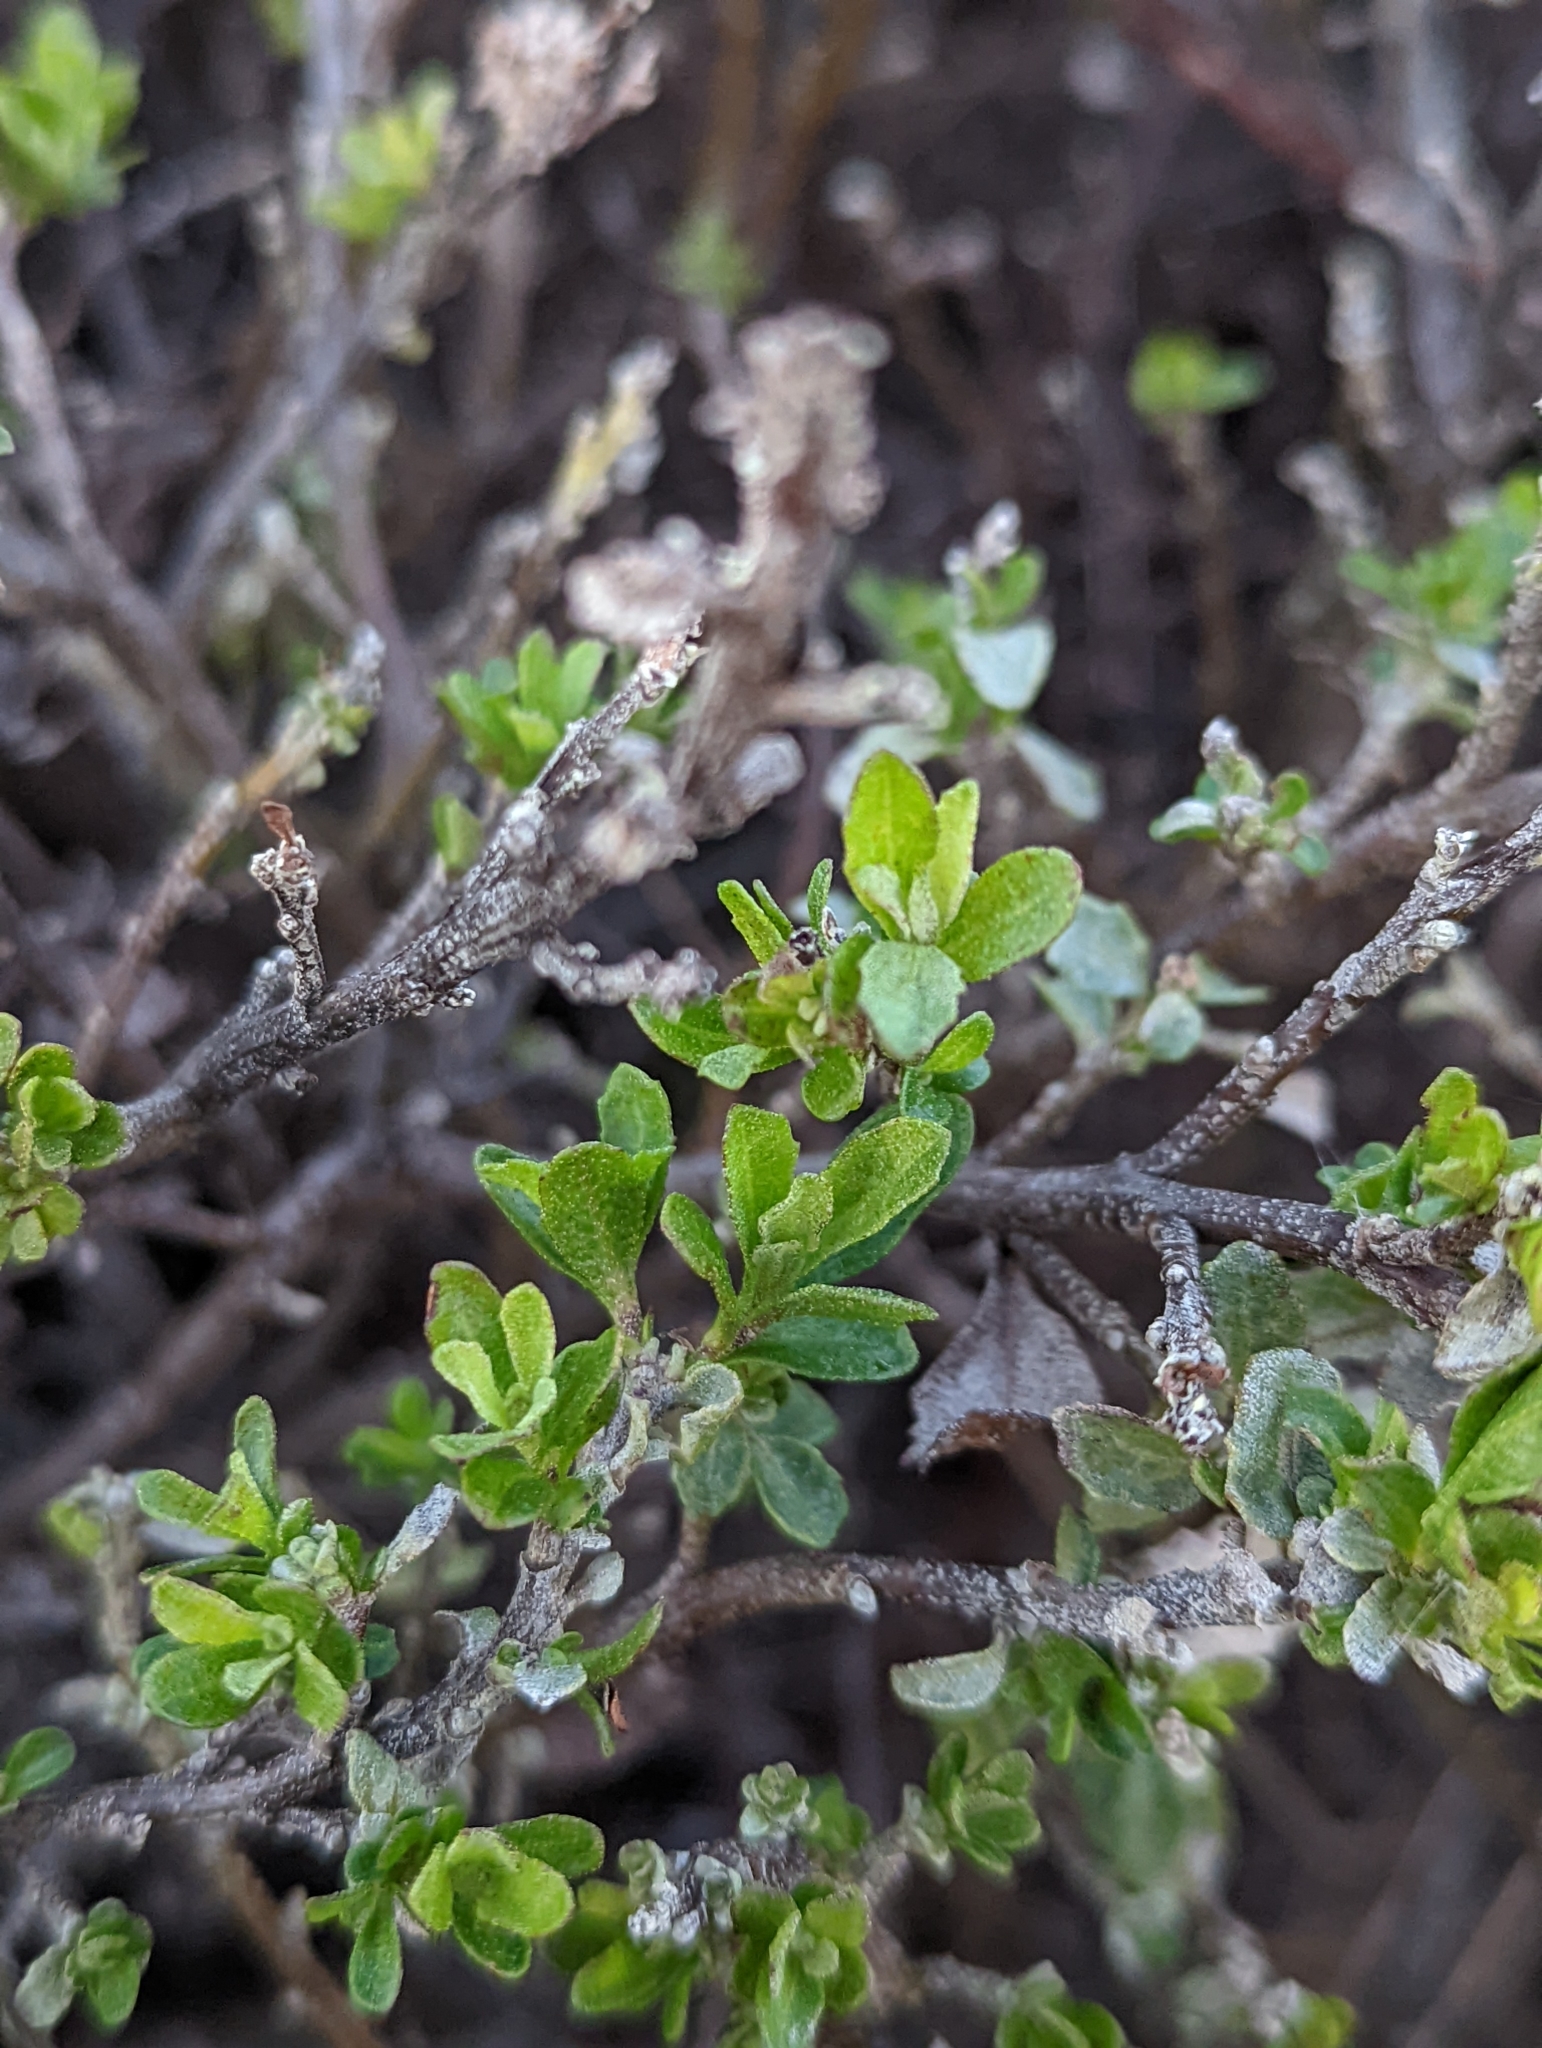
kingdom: Plantae
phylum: Tracheophyta
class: Magnoliopsida
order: Asterales
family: Asteraceae
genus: Baccharis
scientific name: Baccharis pilularis
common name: Coyotebrush
